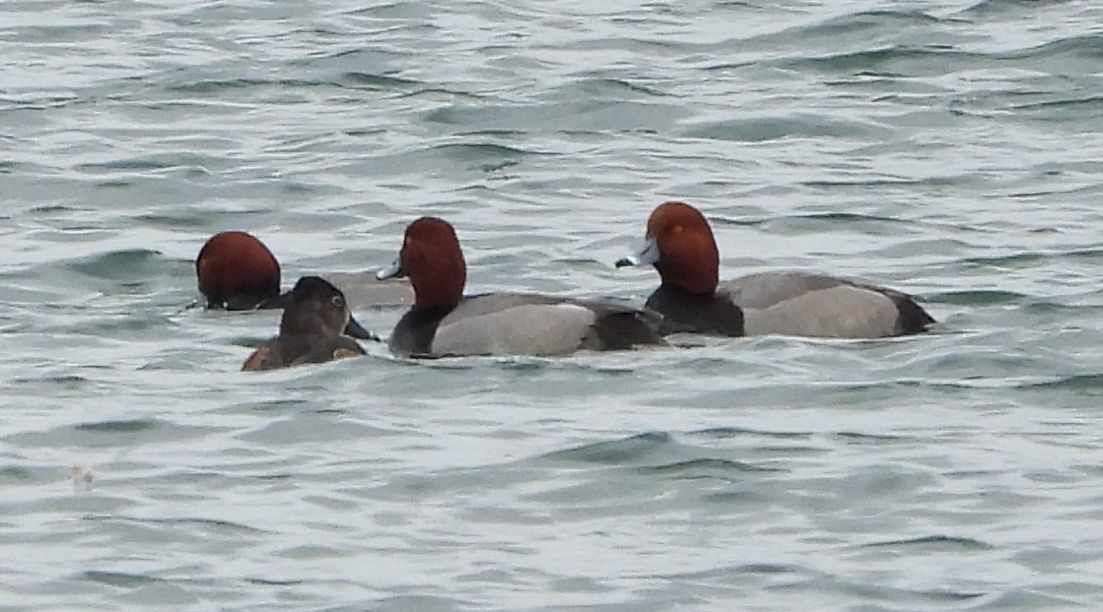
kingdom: Animalia
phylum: Chordata
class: Aves
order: Anseriformes
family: Anatidae
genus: Aythya
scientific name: Aythya americana
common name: Redhead
